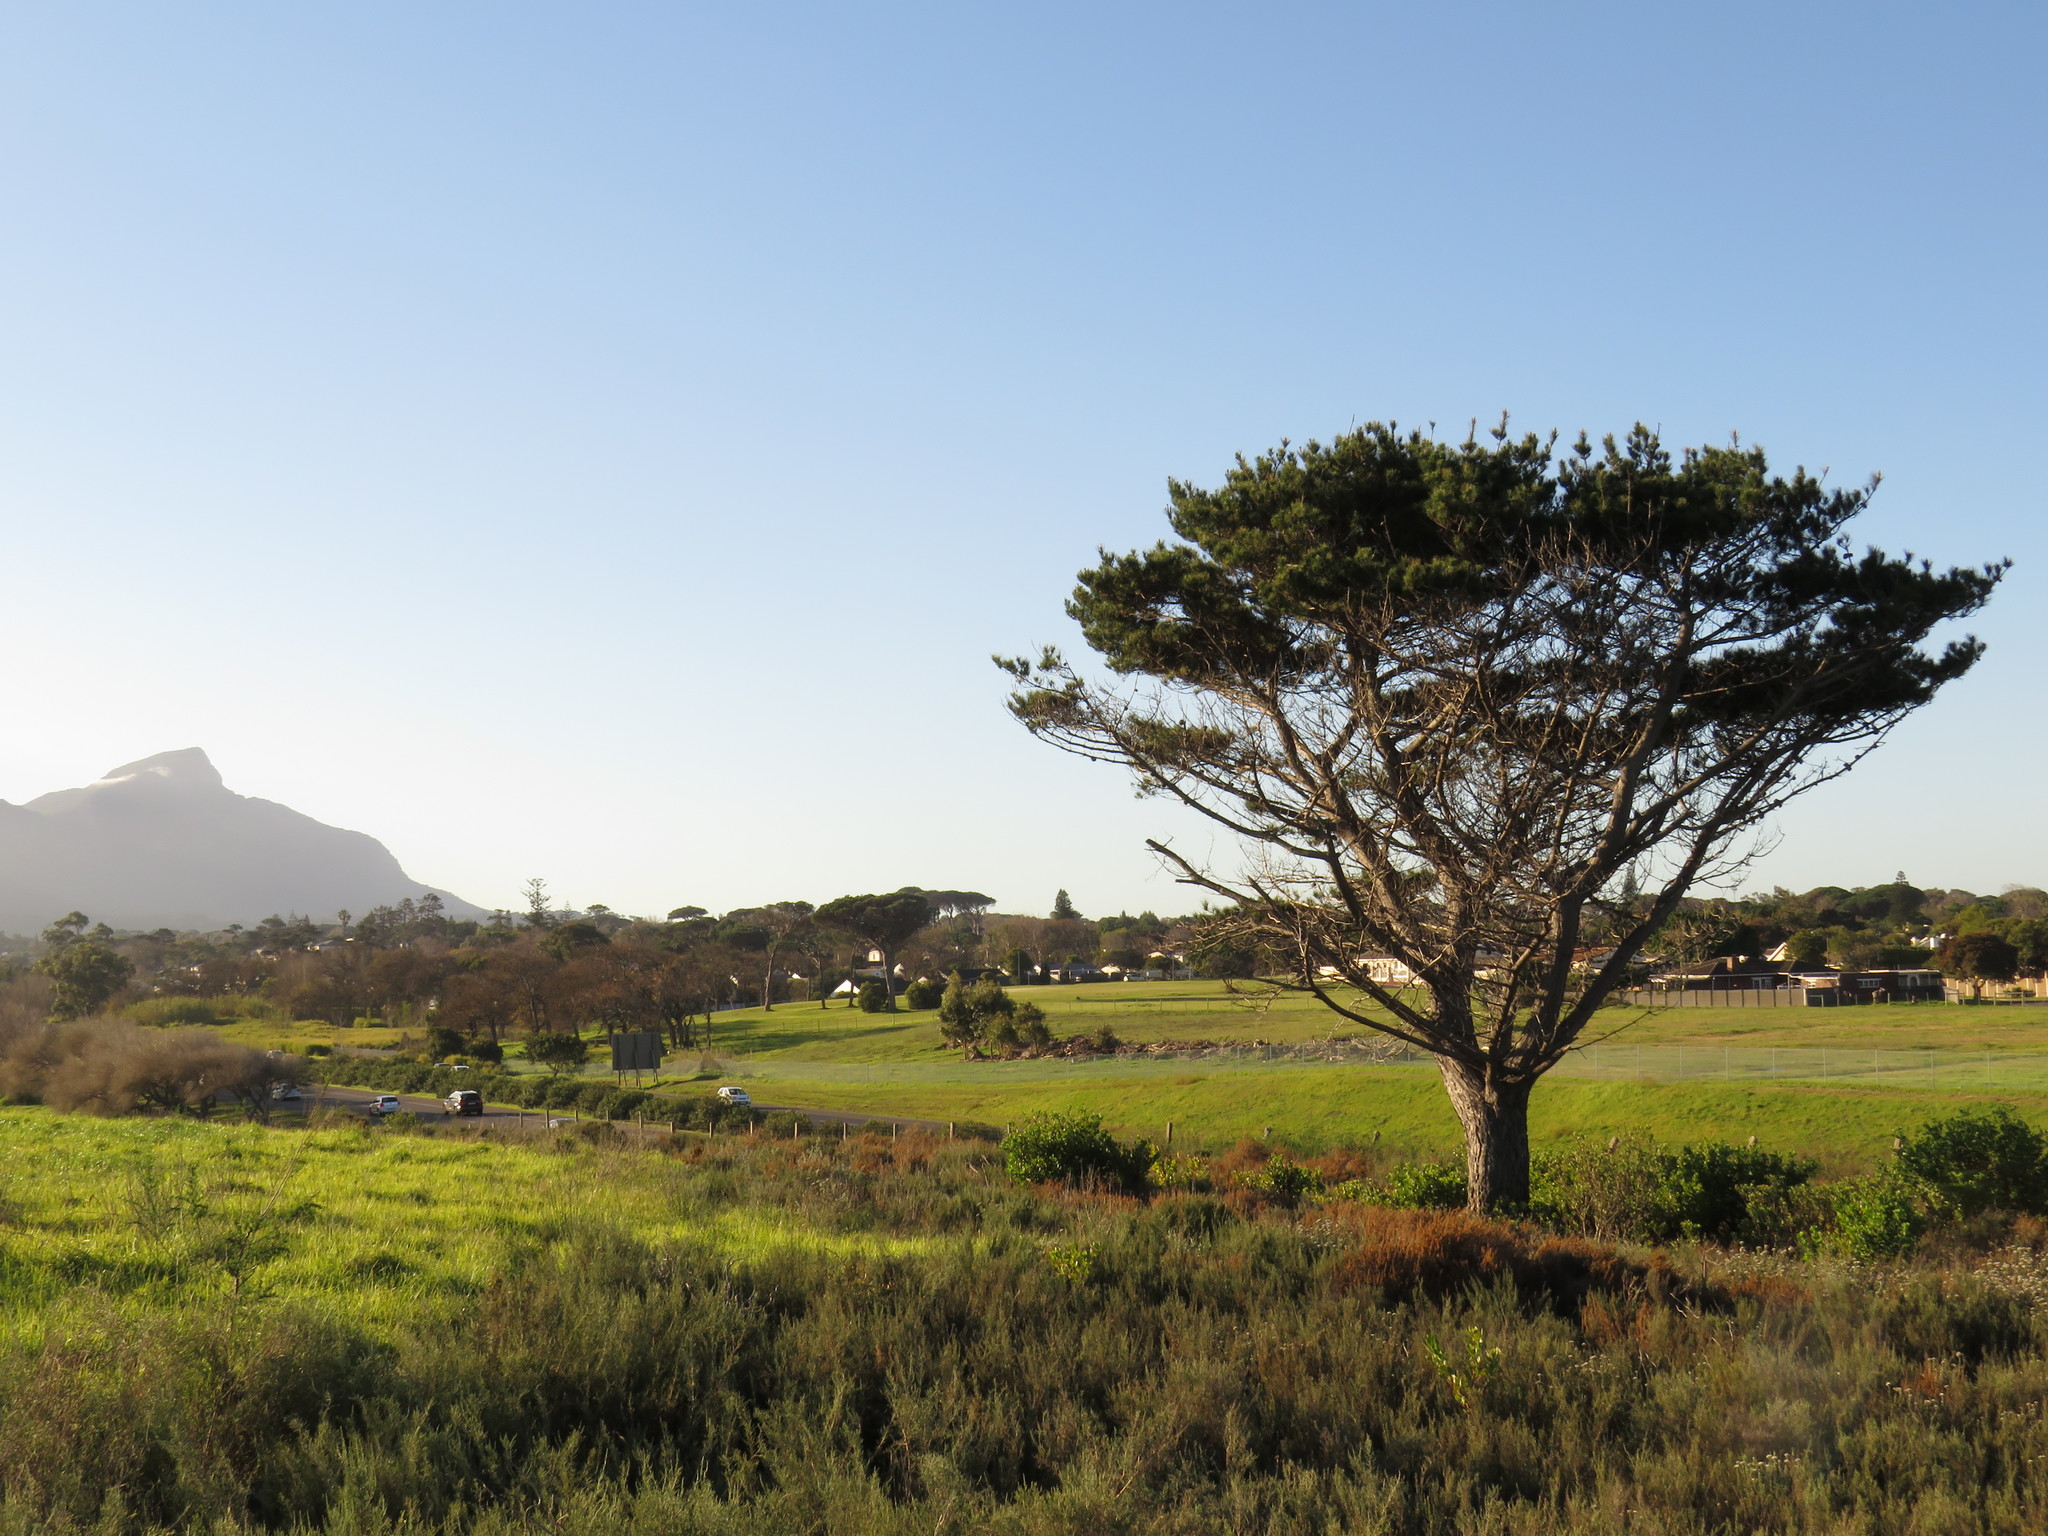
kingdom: Plantae
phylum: Tracheophyta
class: Pinopsida
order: Pinales
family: Pinaceae
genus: Pinus
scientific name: Pinus radiata
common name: Monterey pine
